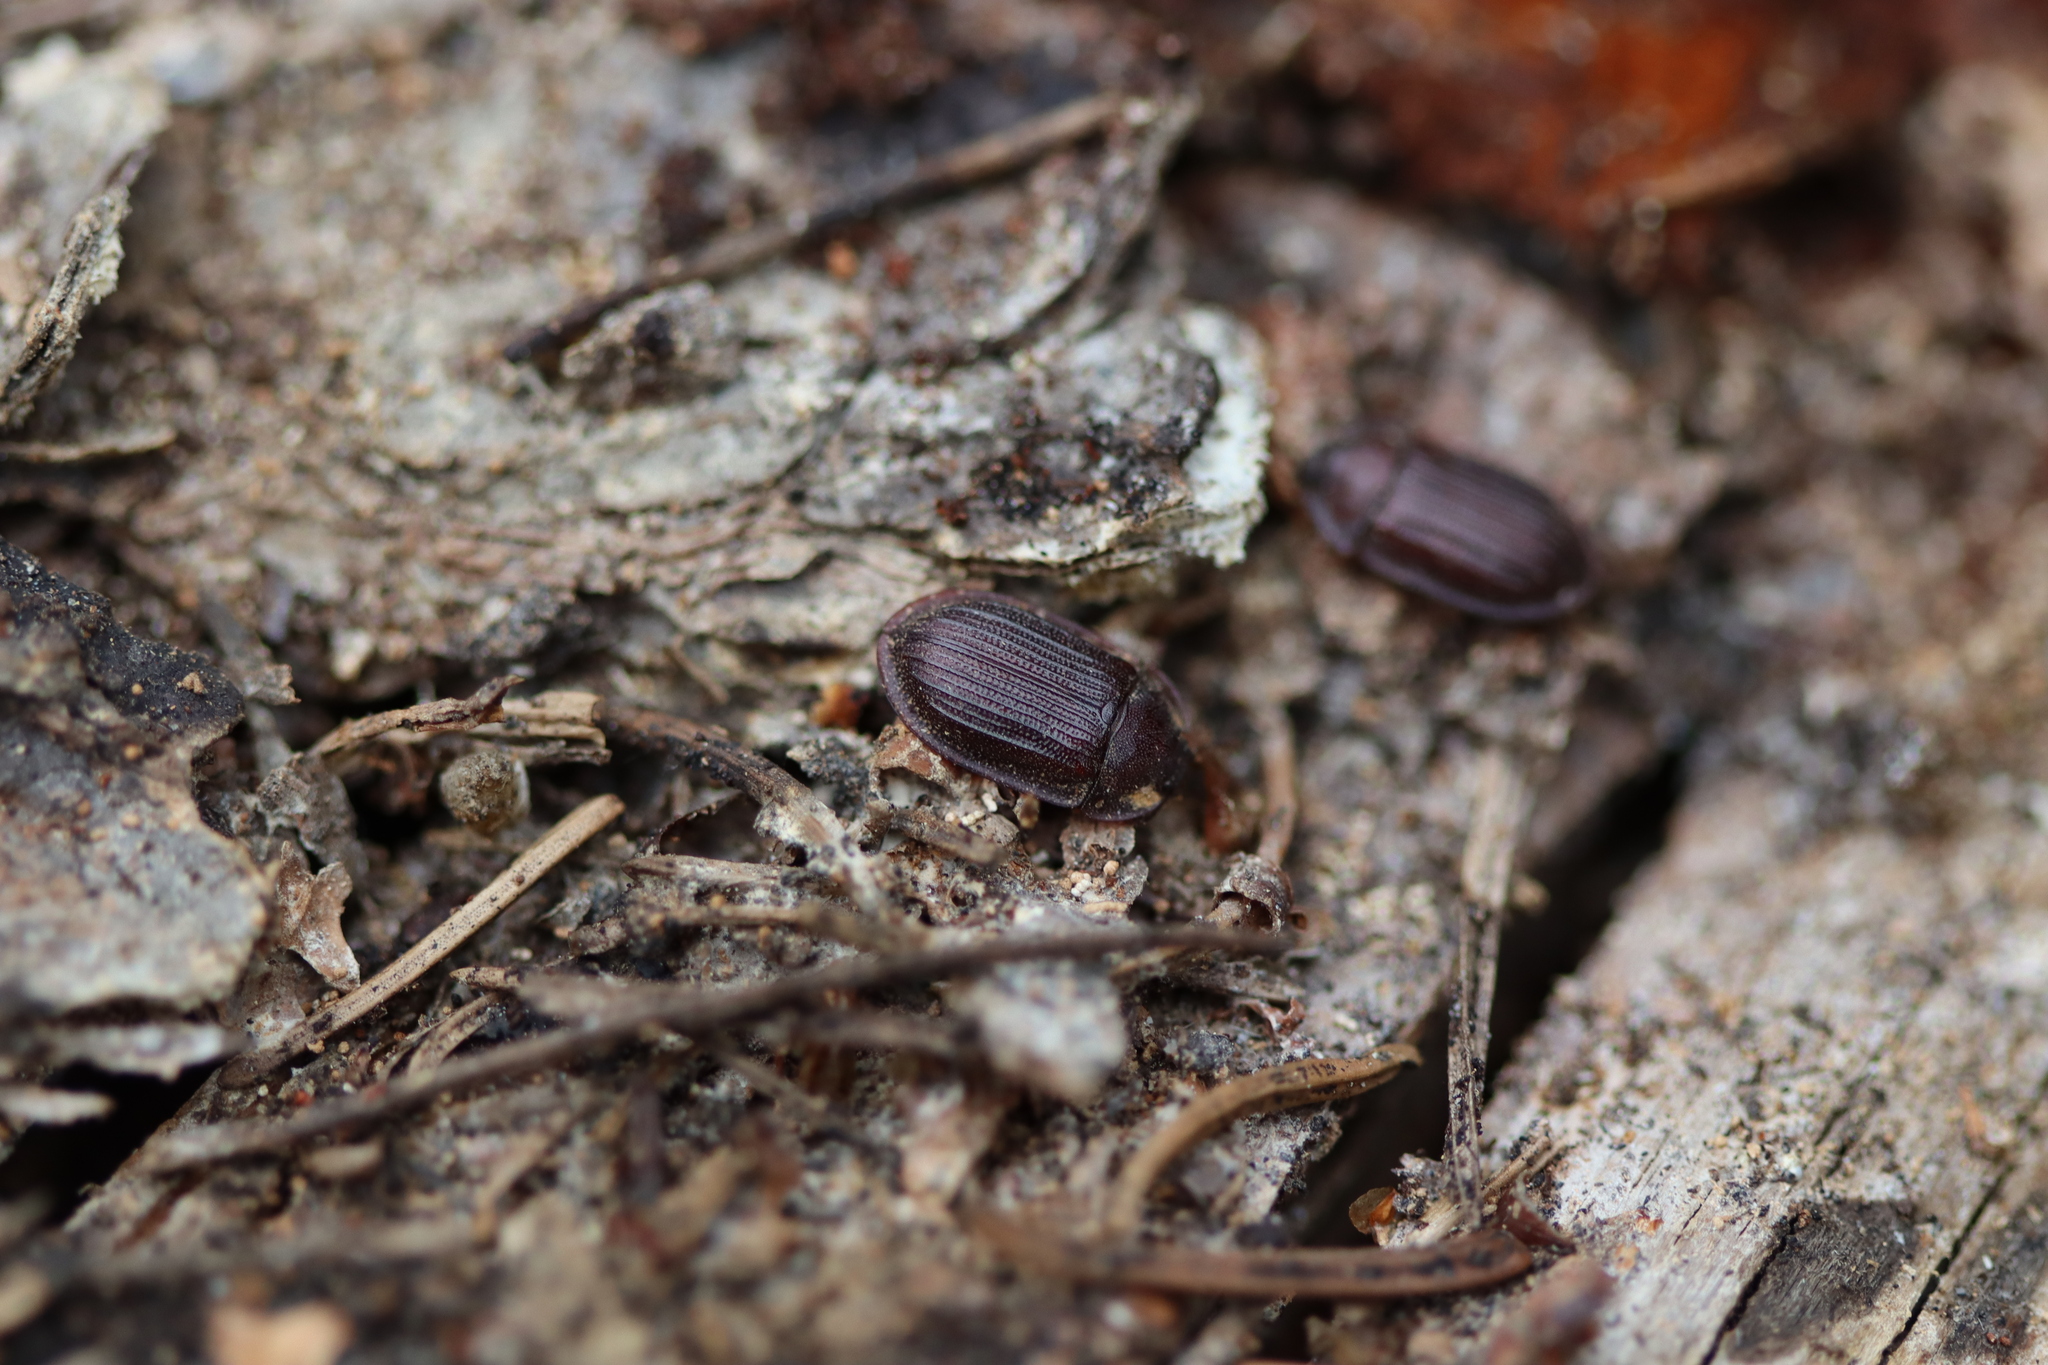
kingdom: Animalia
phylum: Arthropoda
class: Insecta
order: Coleoptera
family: Trogossitidae
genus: Peltis
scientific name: Peltis ferruginea
